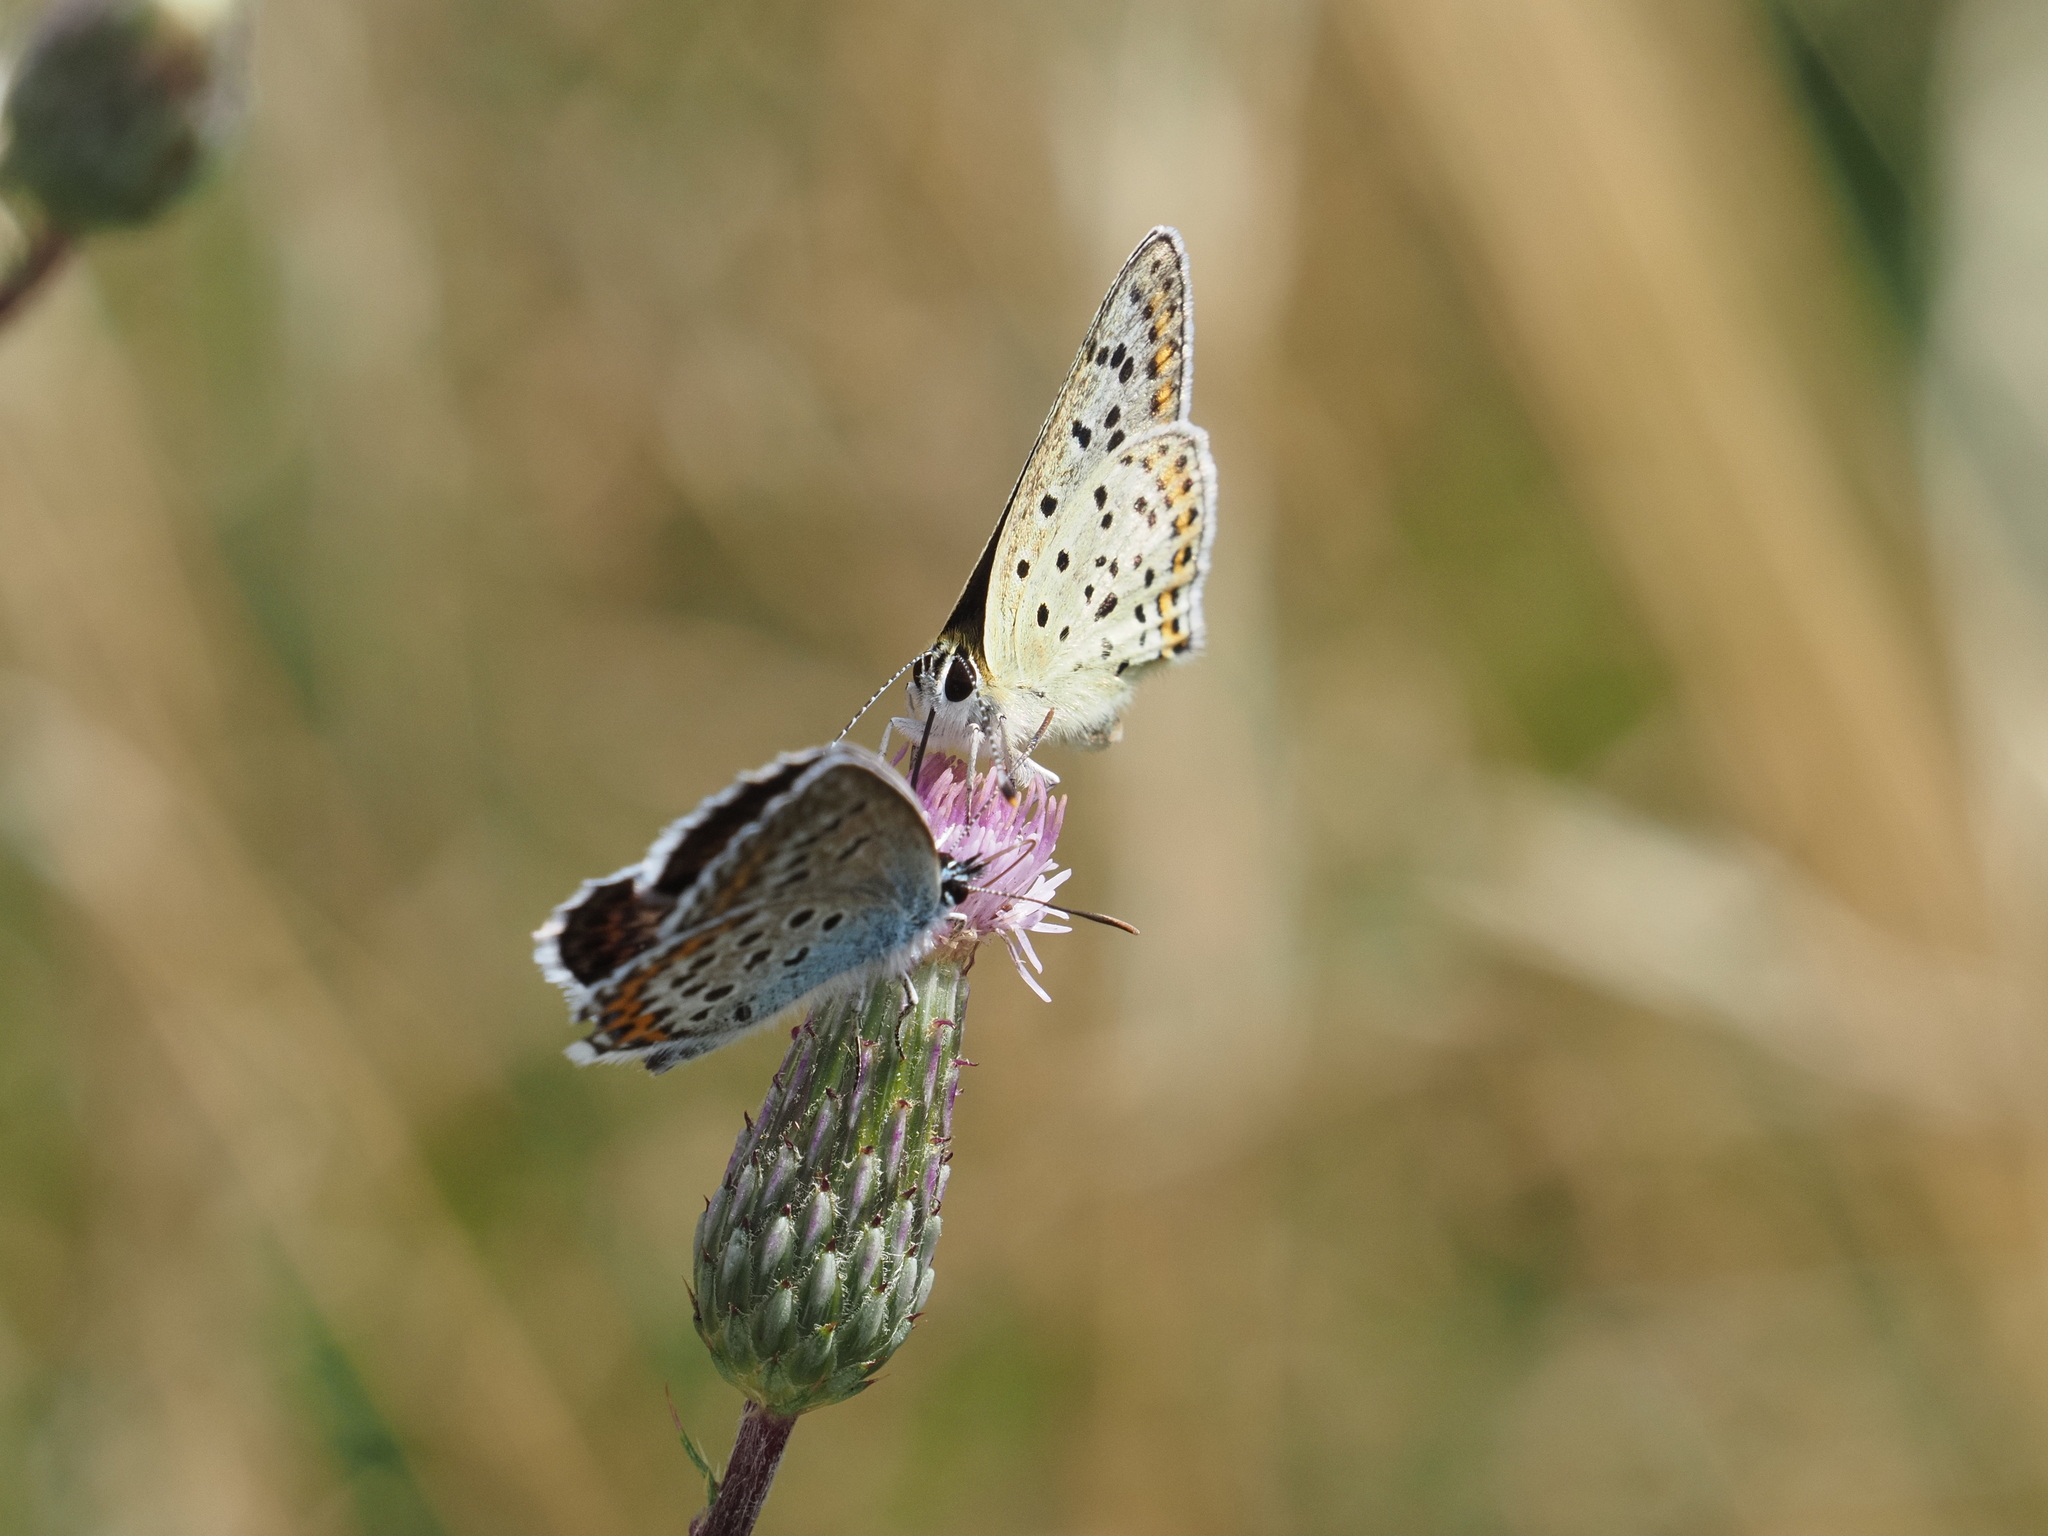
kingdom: Animalia
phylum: Arthropoda
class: Insecta
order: Lepidoptera
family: Lycaenidae
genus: Loweia
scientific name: Loweia tityrus
